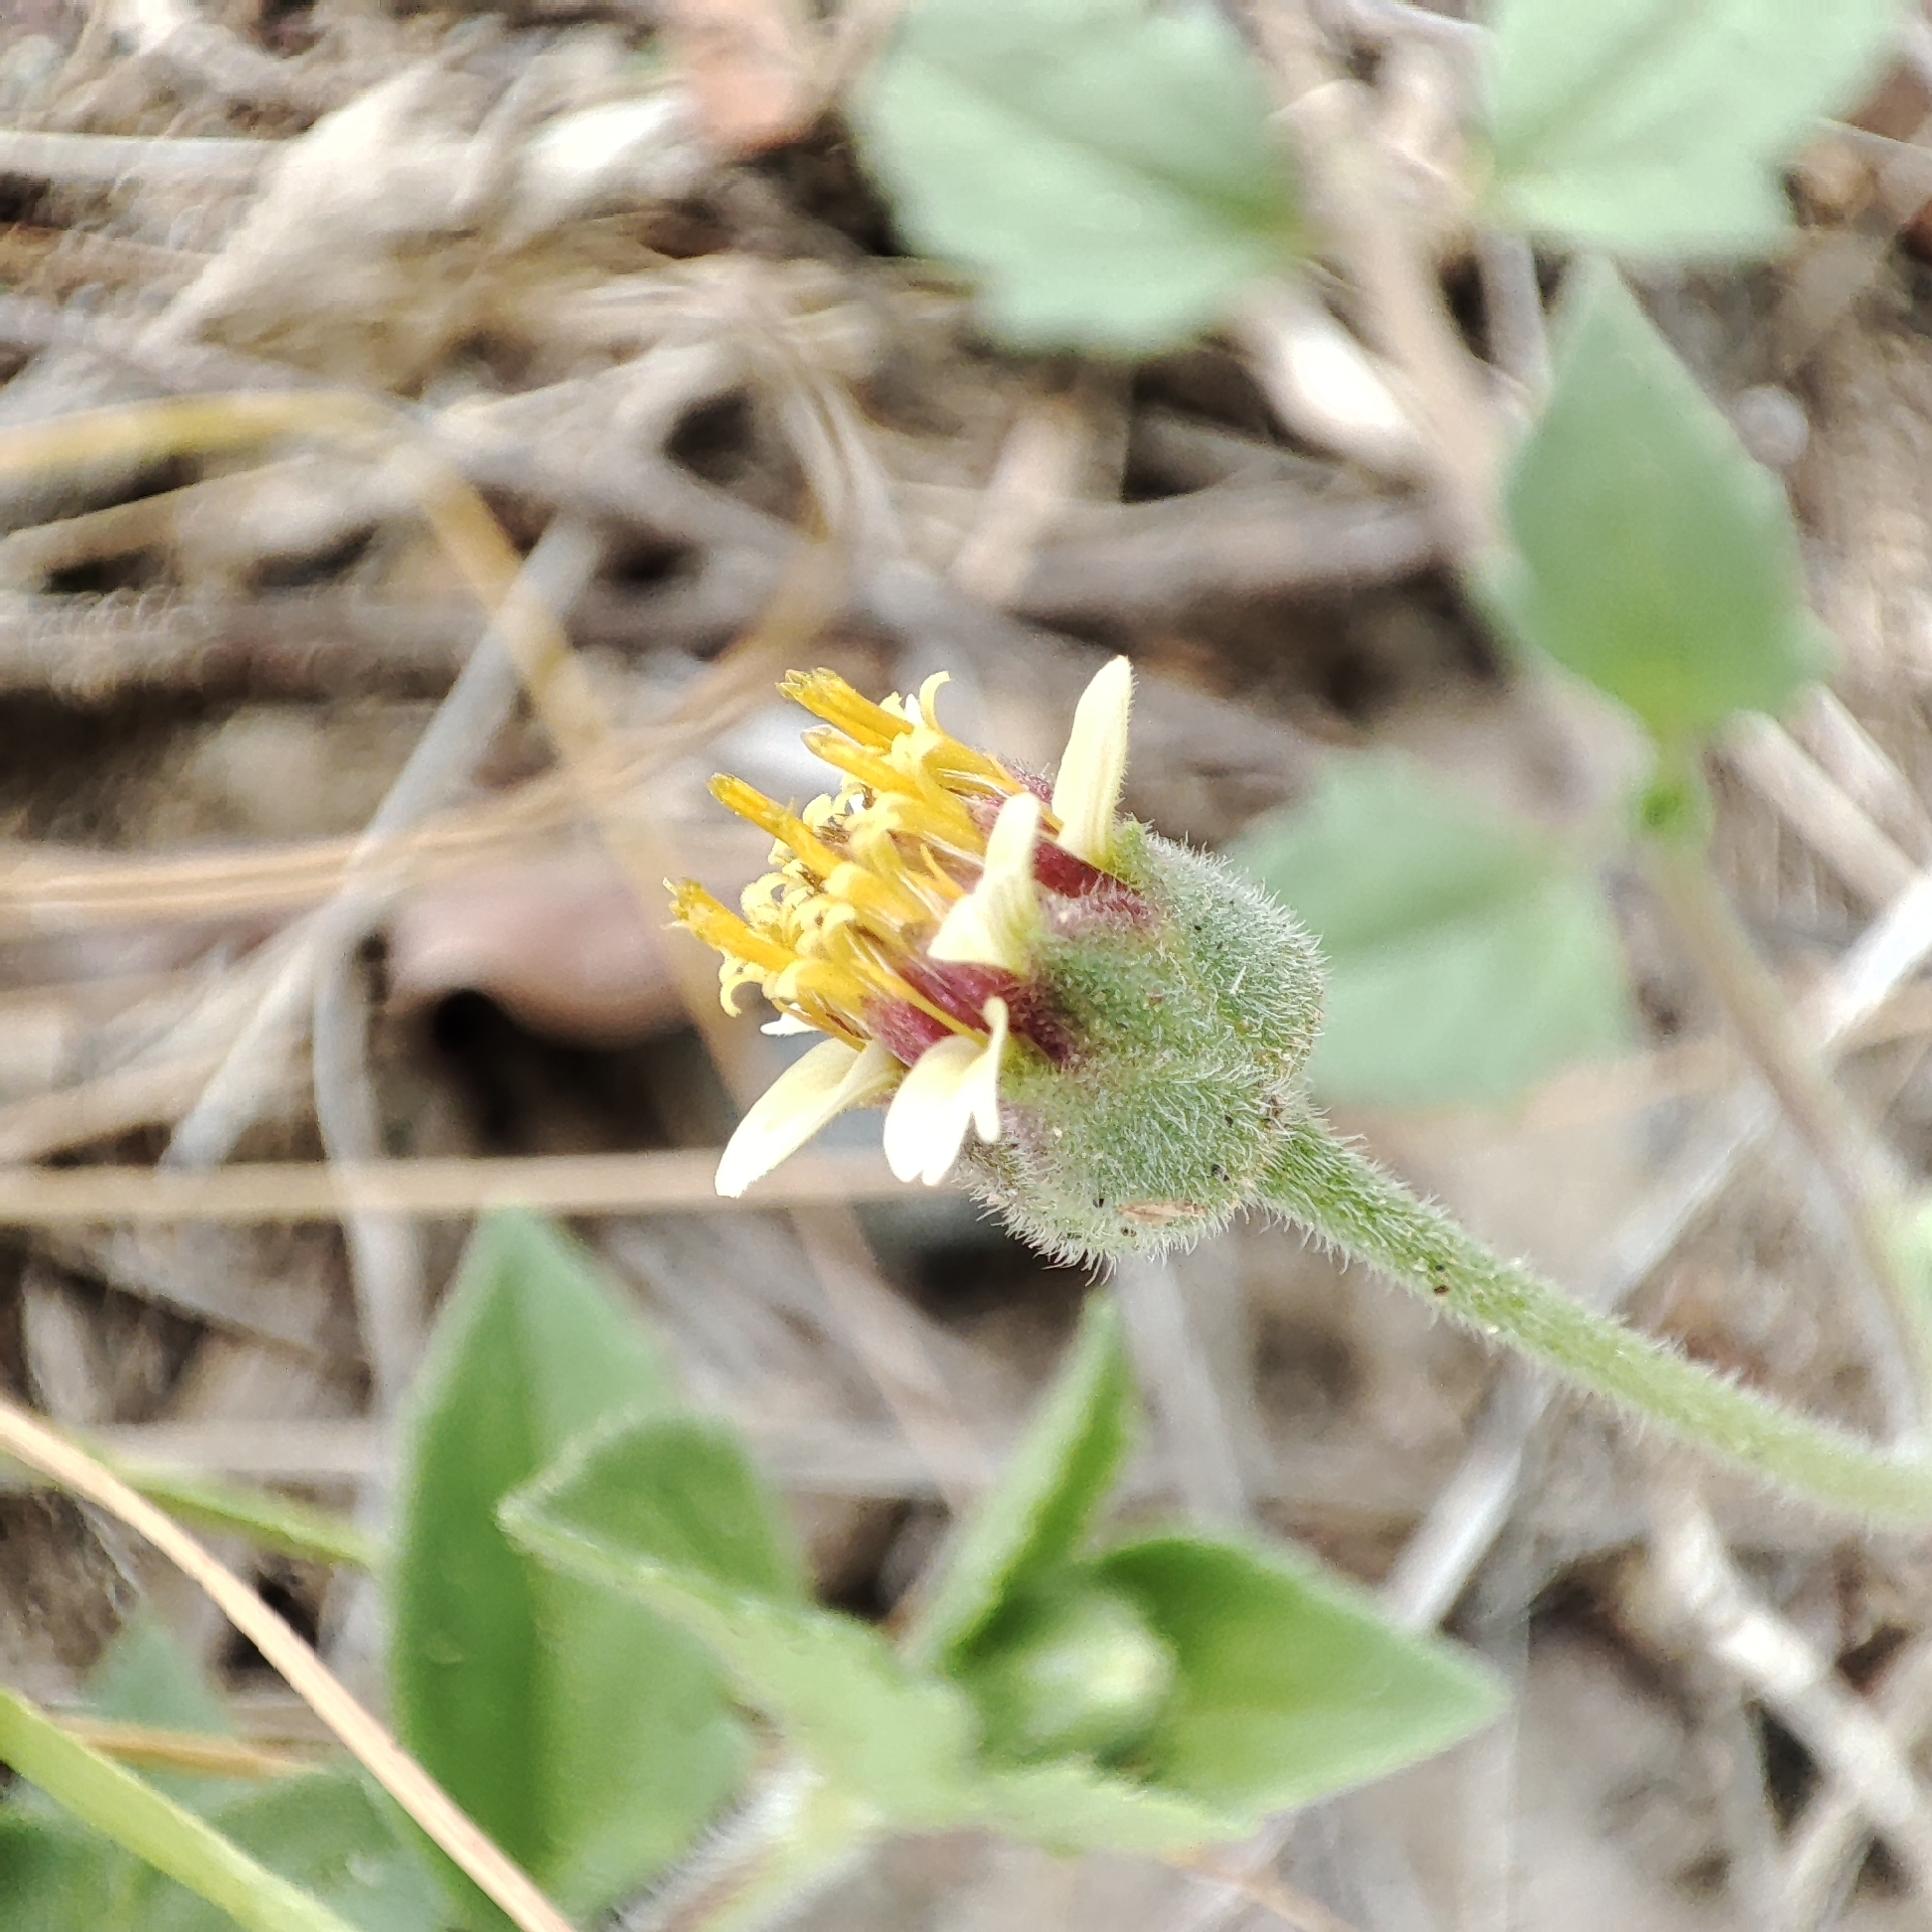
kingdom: Plantae
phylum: Tracheophyta
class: Magnoliopsida
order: Asterales
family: Asteraceae
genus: Tridax
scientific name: Tridax procumbens
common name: Coatbuttons
